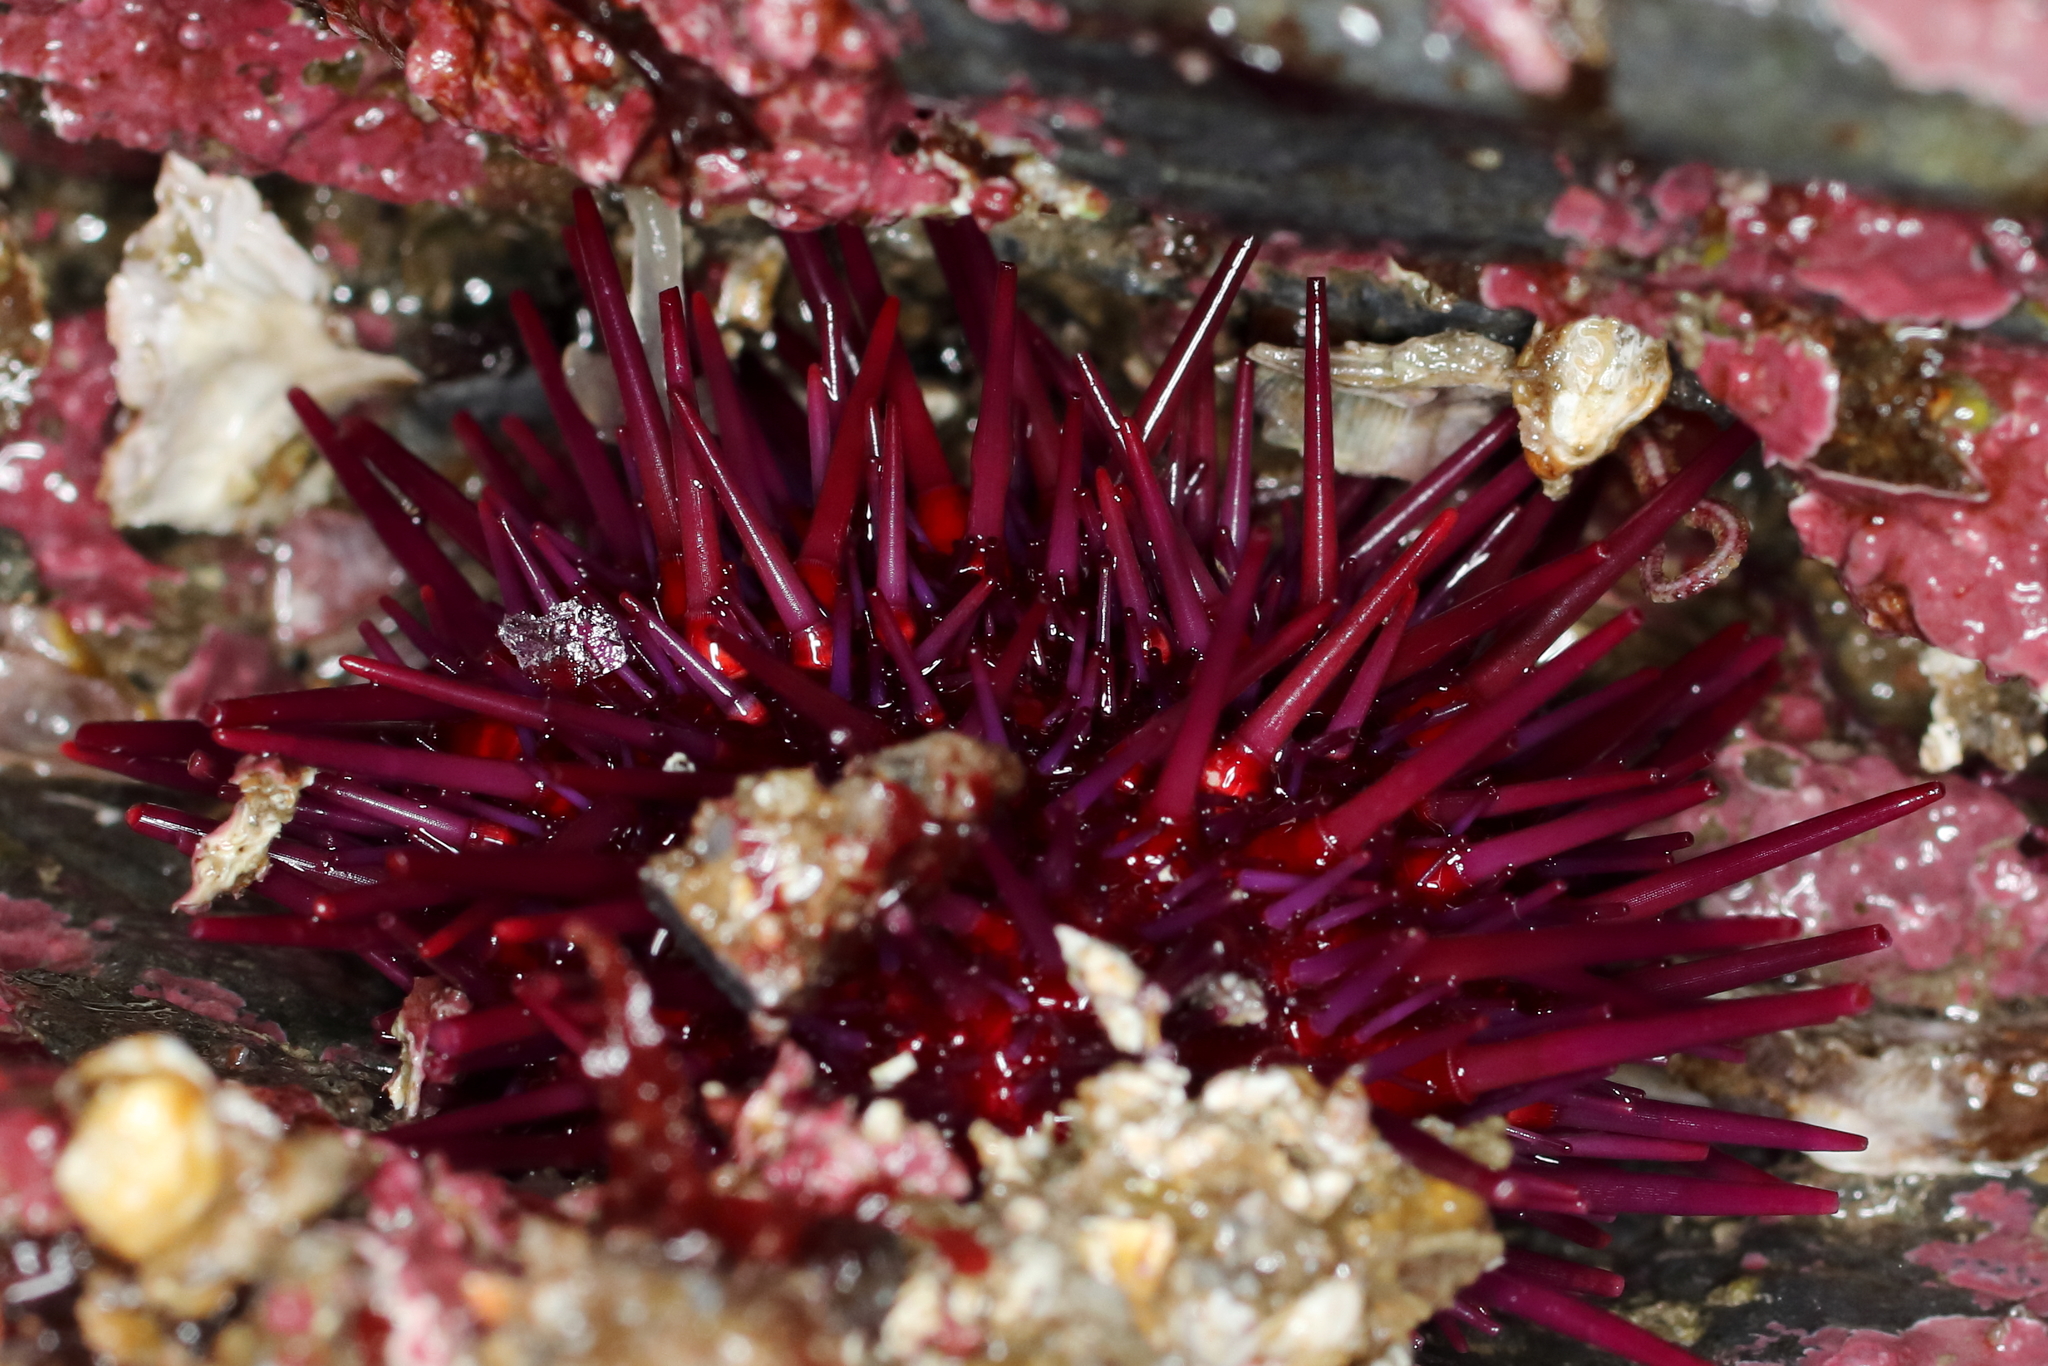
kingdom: Animalia
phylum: Echinodermata
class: Echinoidea
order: Camarodonta
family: Strongylocentrotidae
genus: Mesocentrotus
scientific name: Mesocentrotus franciscanus
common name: Red sea urchin
